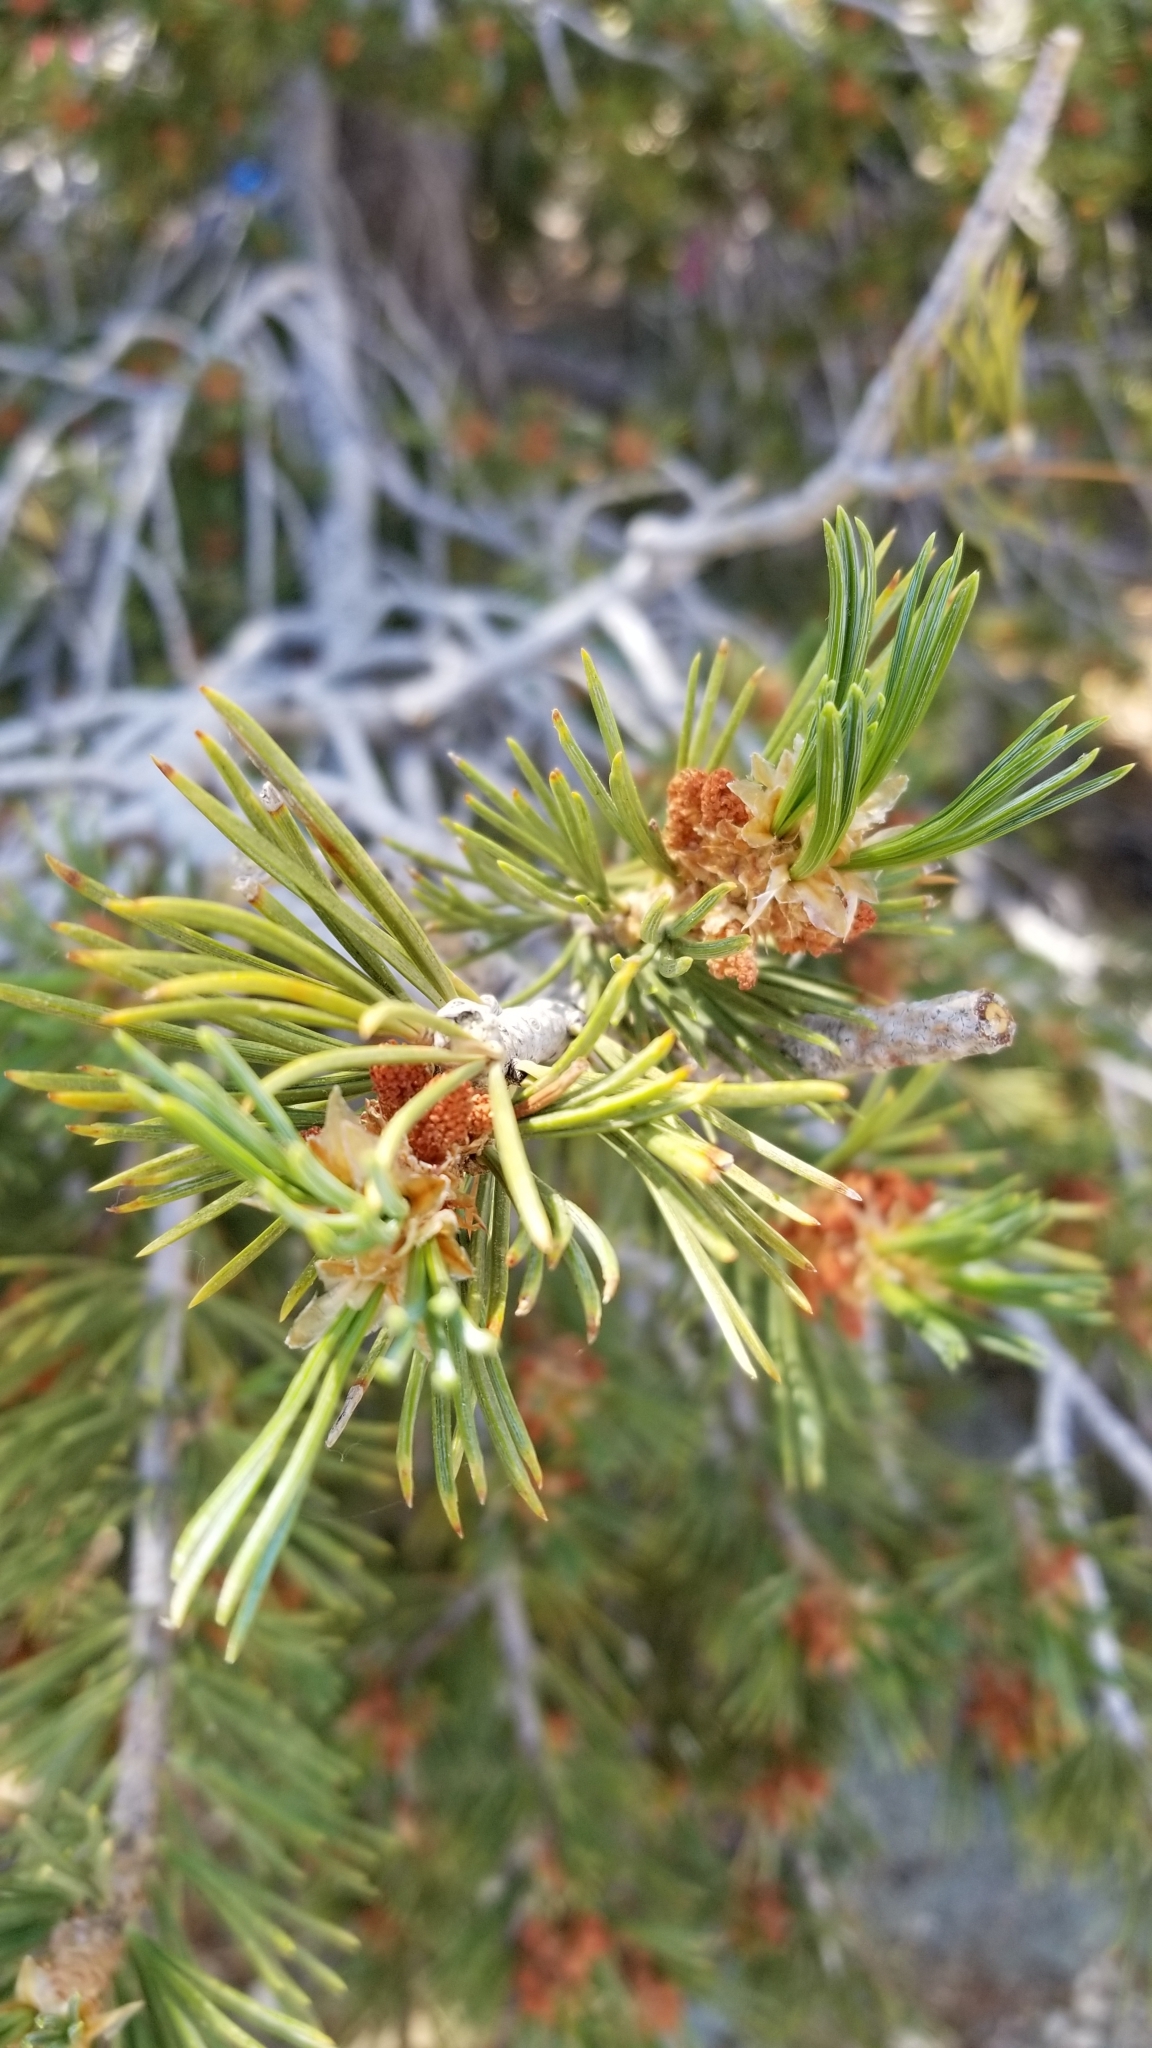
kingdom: Plantae
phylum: Tracheophyta
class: Pinopsida
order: Pinales
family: Pinaceae
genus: Pinus
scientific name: Pinus flexilis
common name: Limber pine
